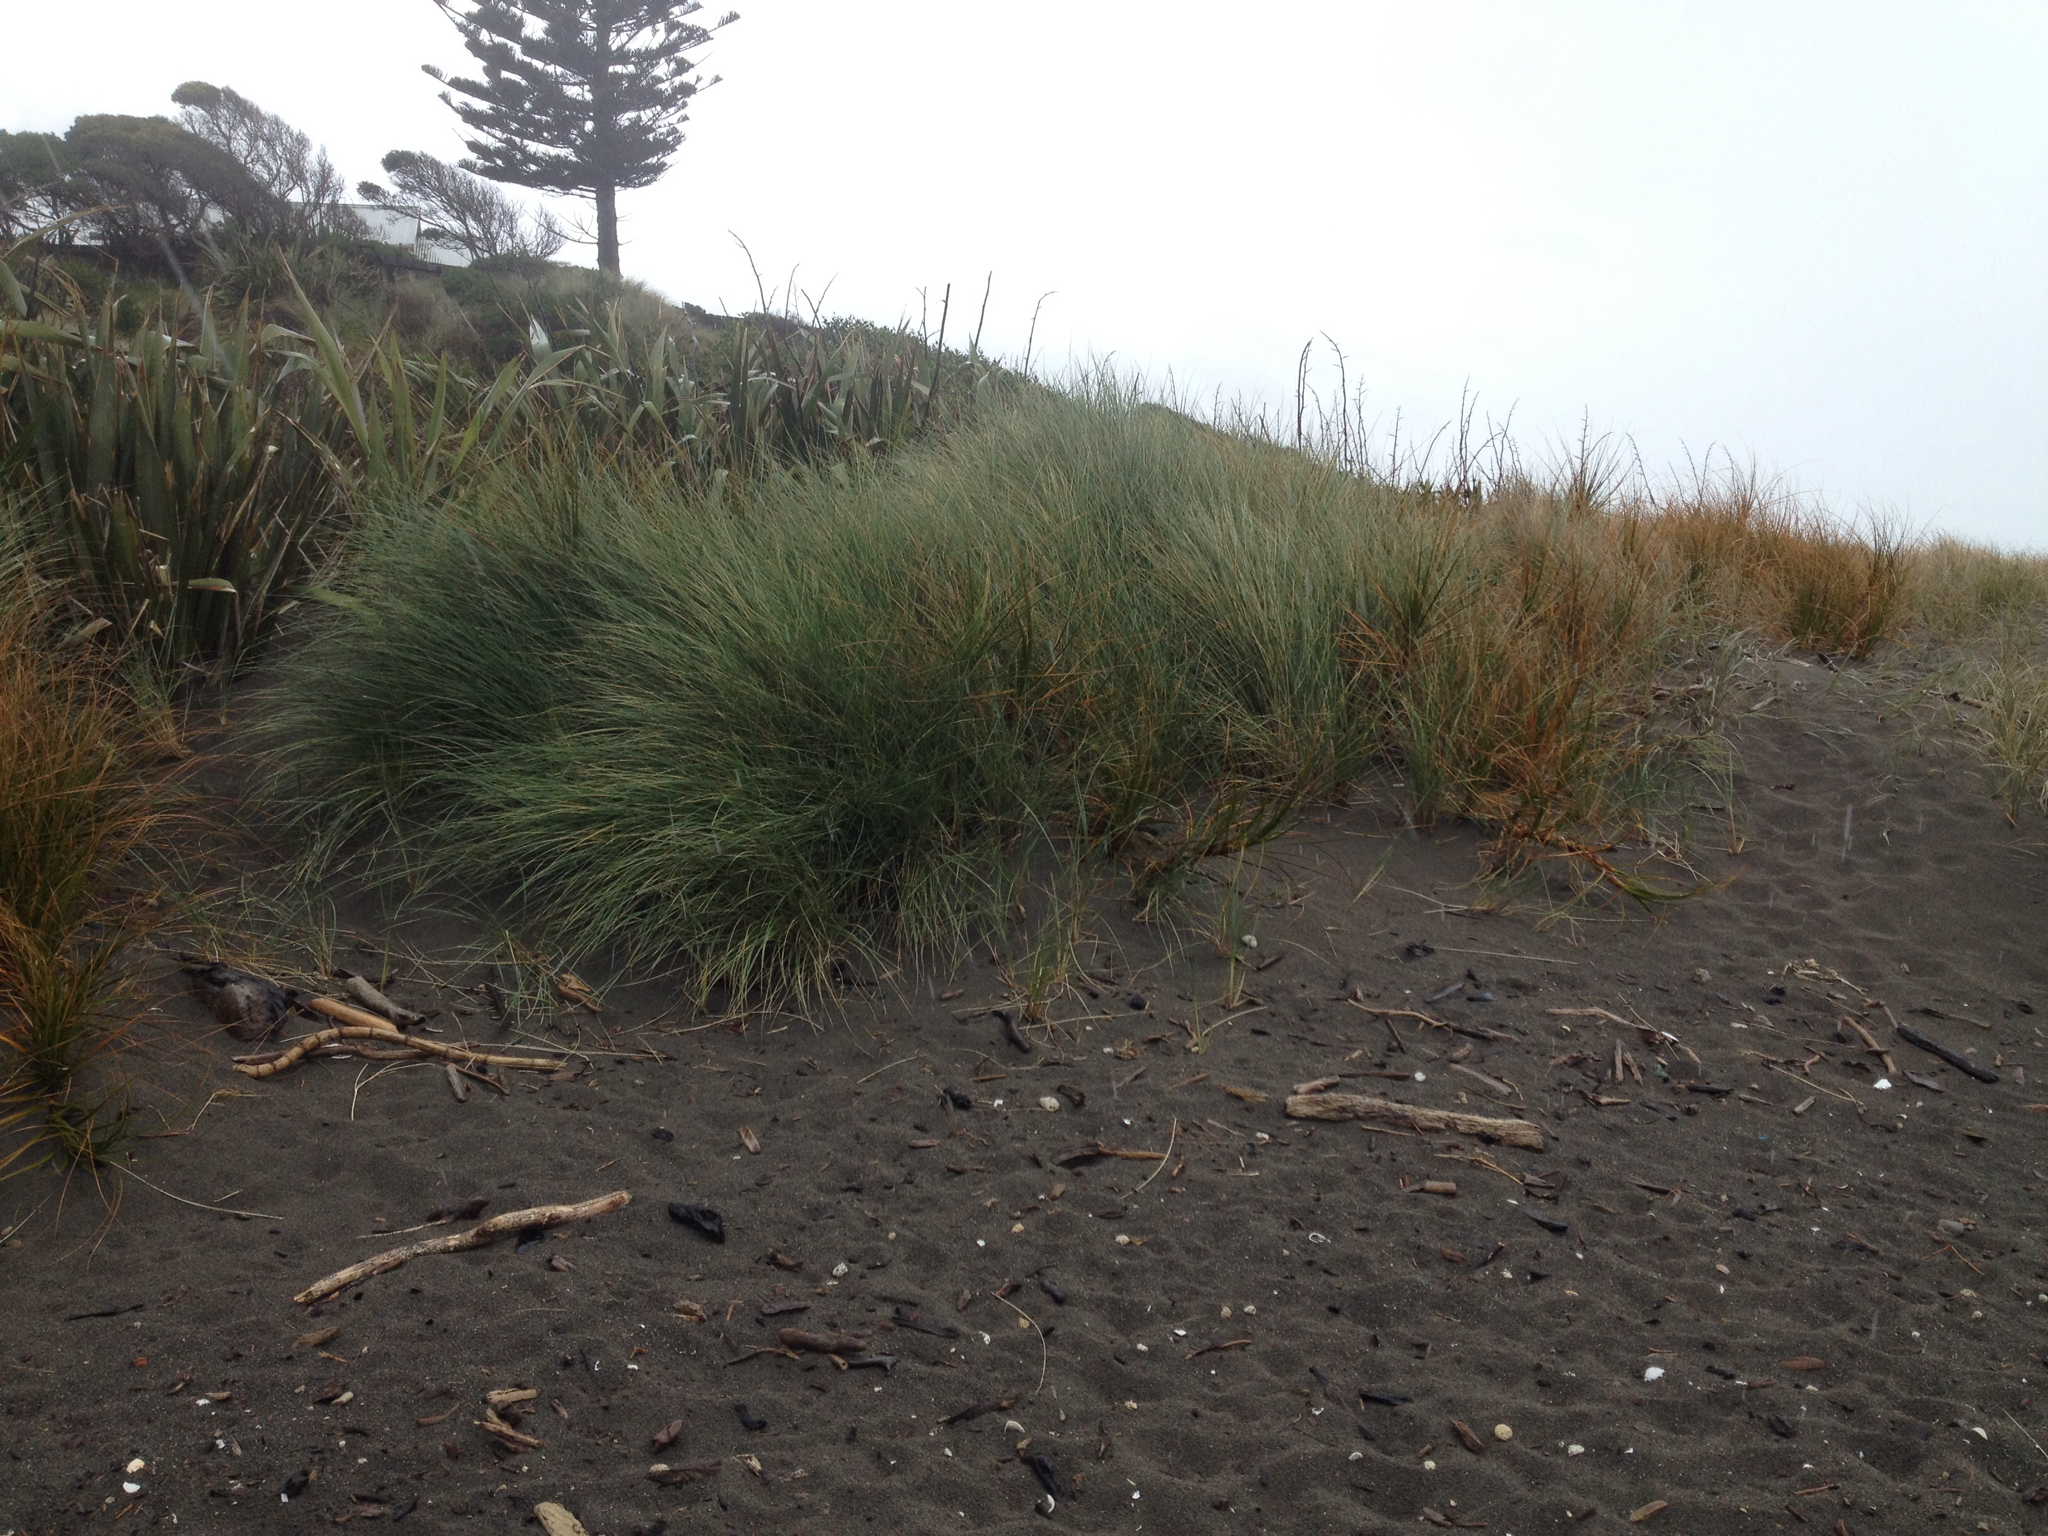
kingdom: Plantae
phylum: Tracheophyta
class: Liliopsida
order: Poales
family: Poaceae
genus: Calamagrostis
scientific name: Calamagrostis arenaria
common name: European beachgrass
